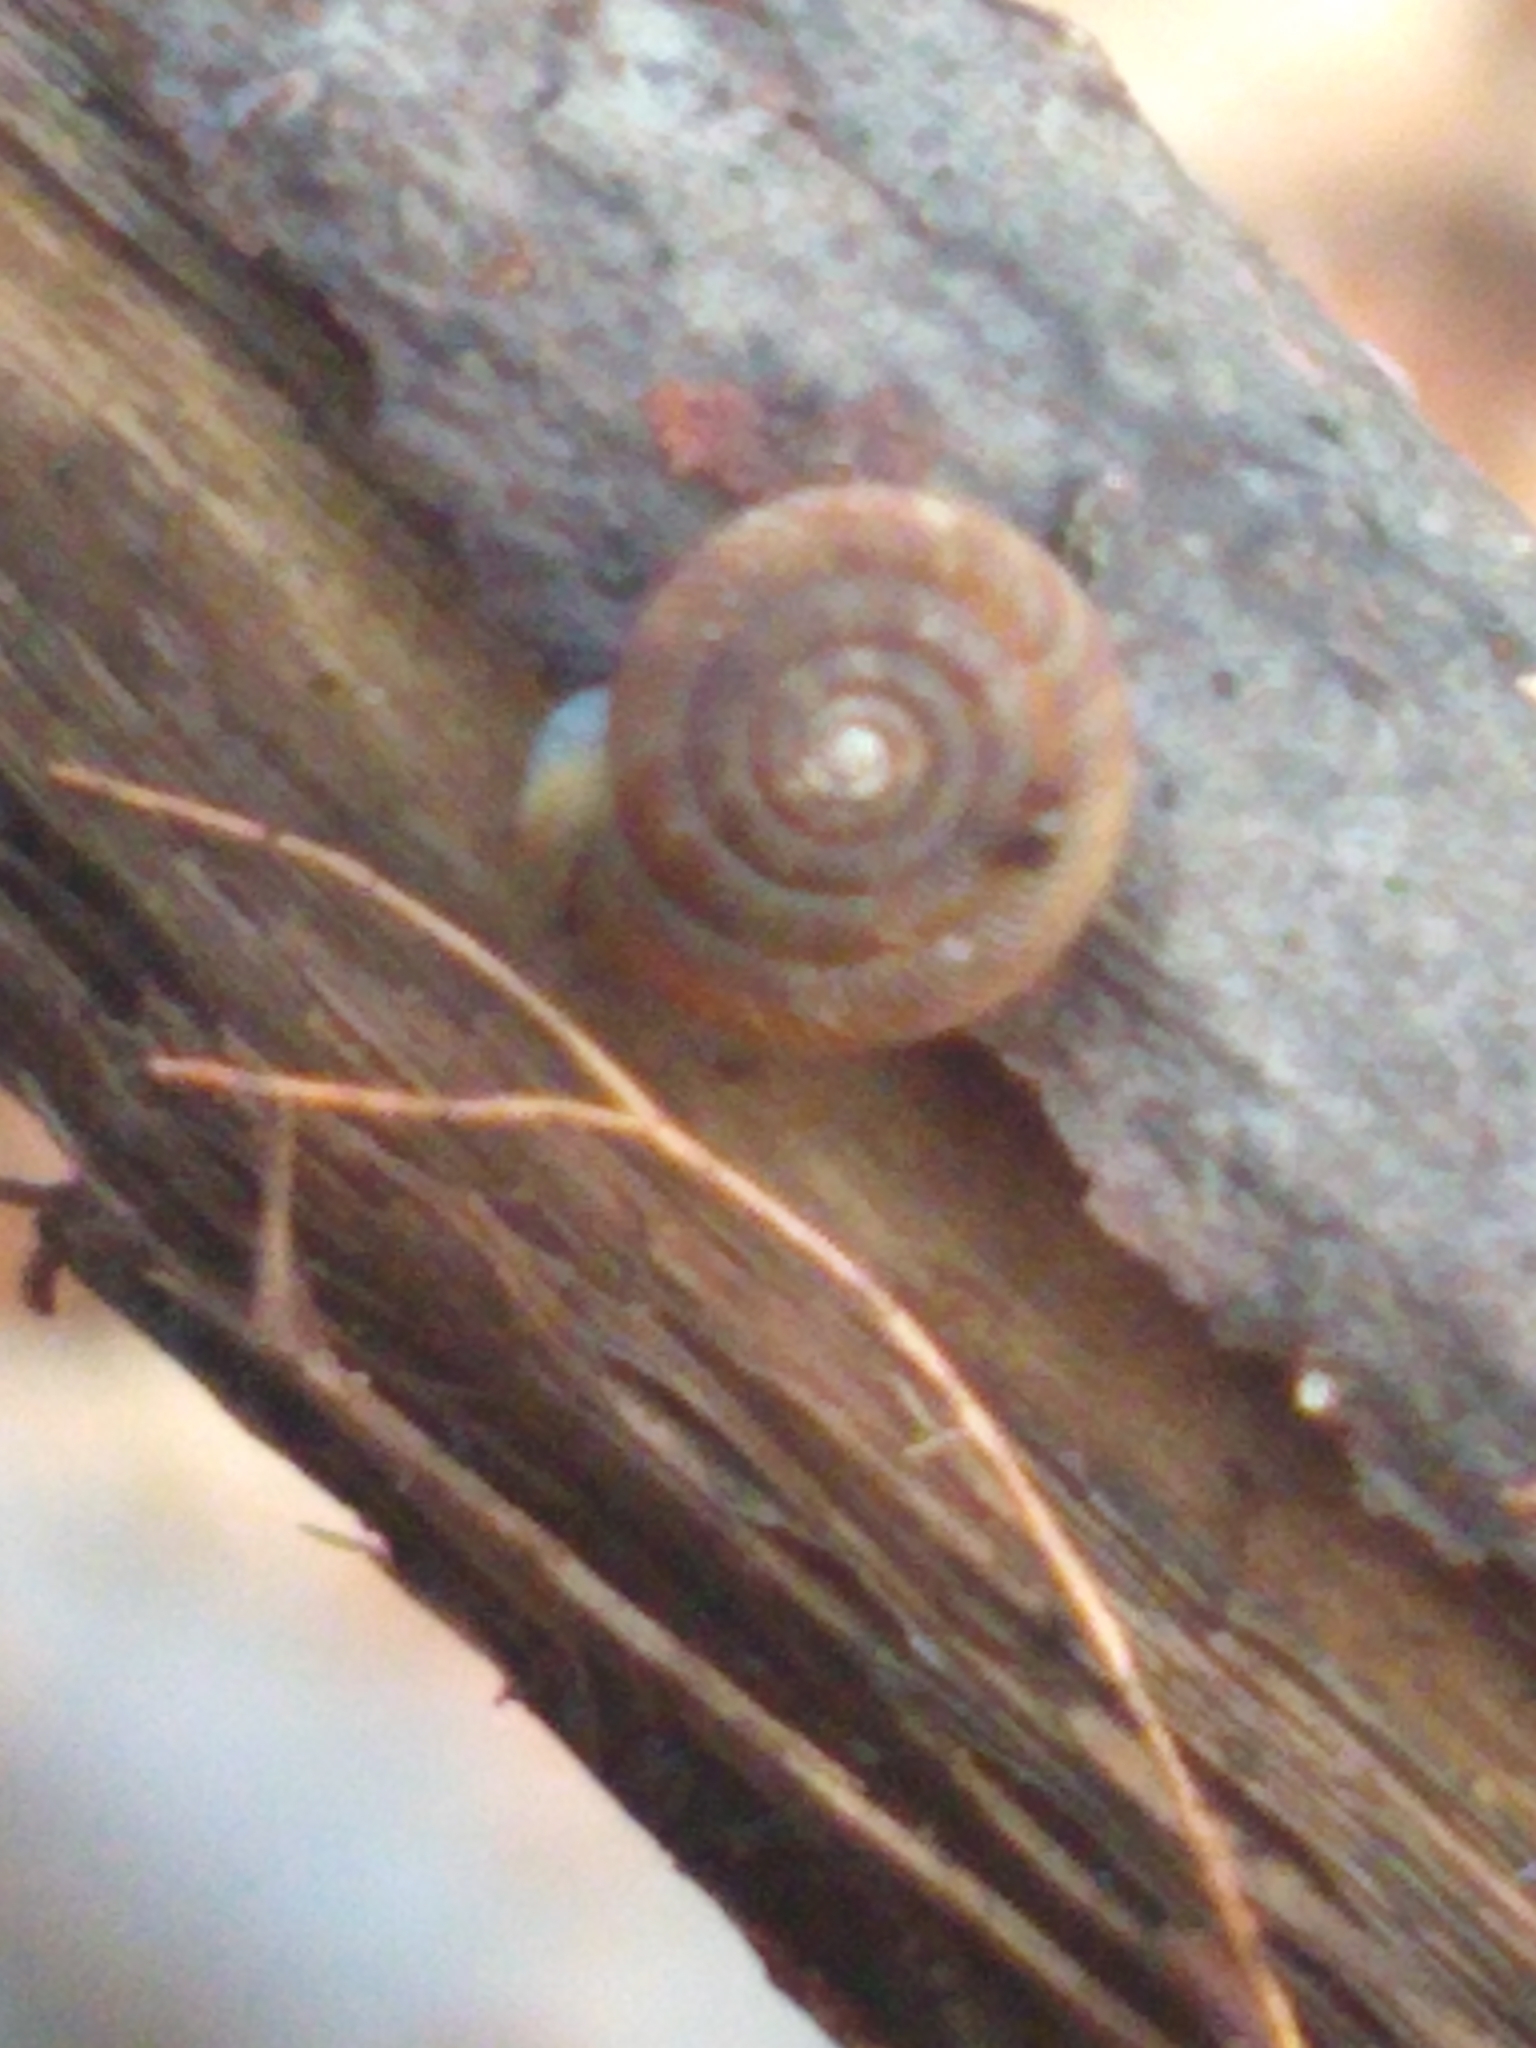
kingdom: Animalia
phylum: Mollusca
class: Gastropoda
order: Stylommatophora
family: Discidae
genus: Discus
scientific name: Discus rotundatus
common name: Rounded snail
